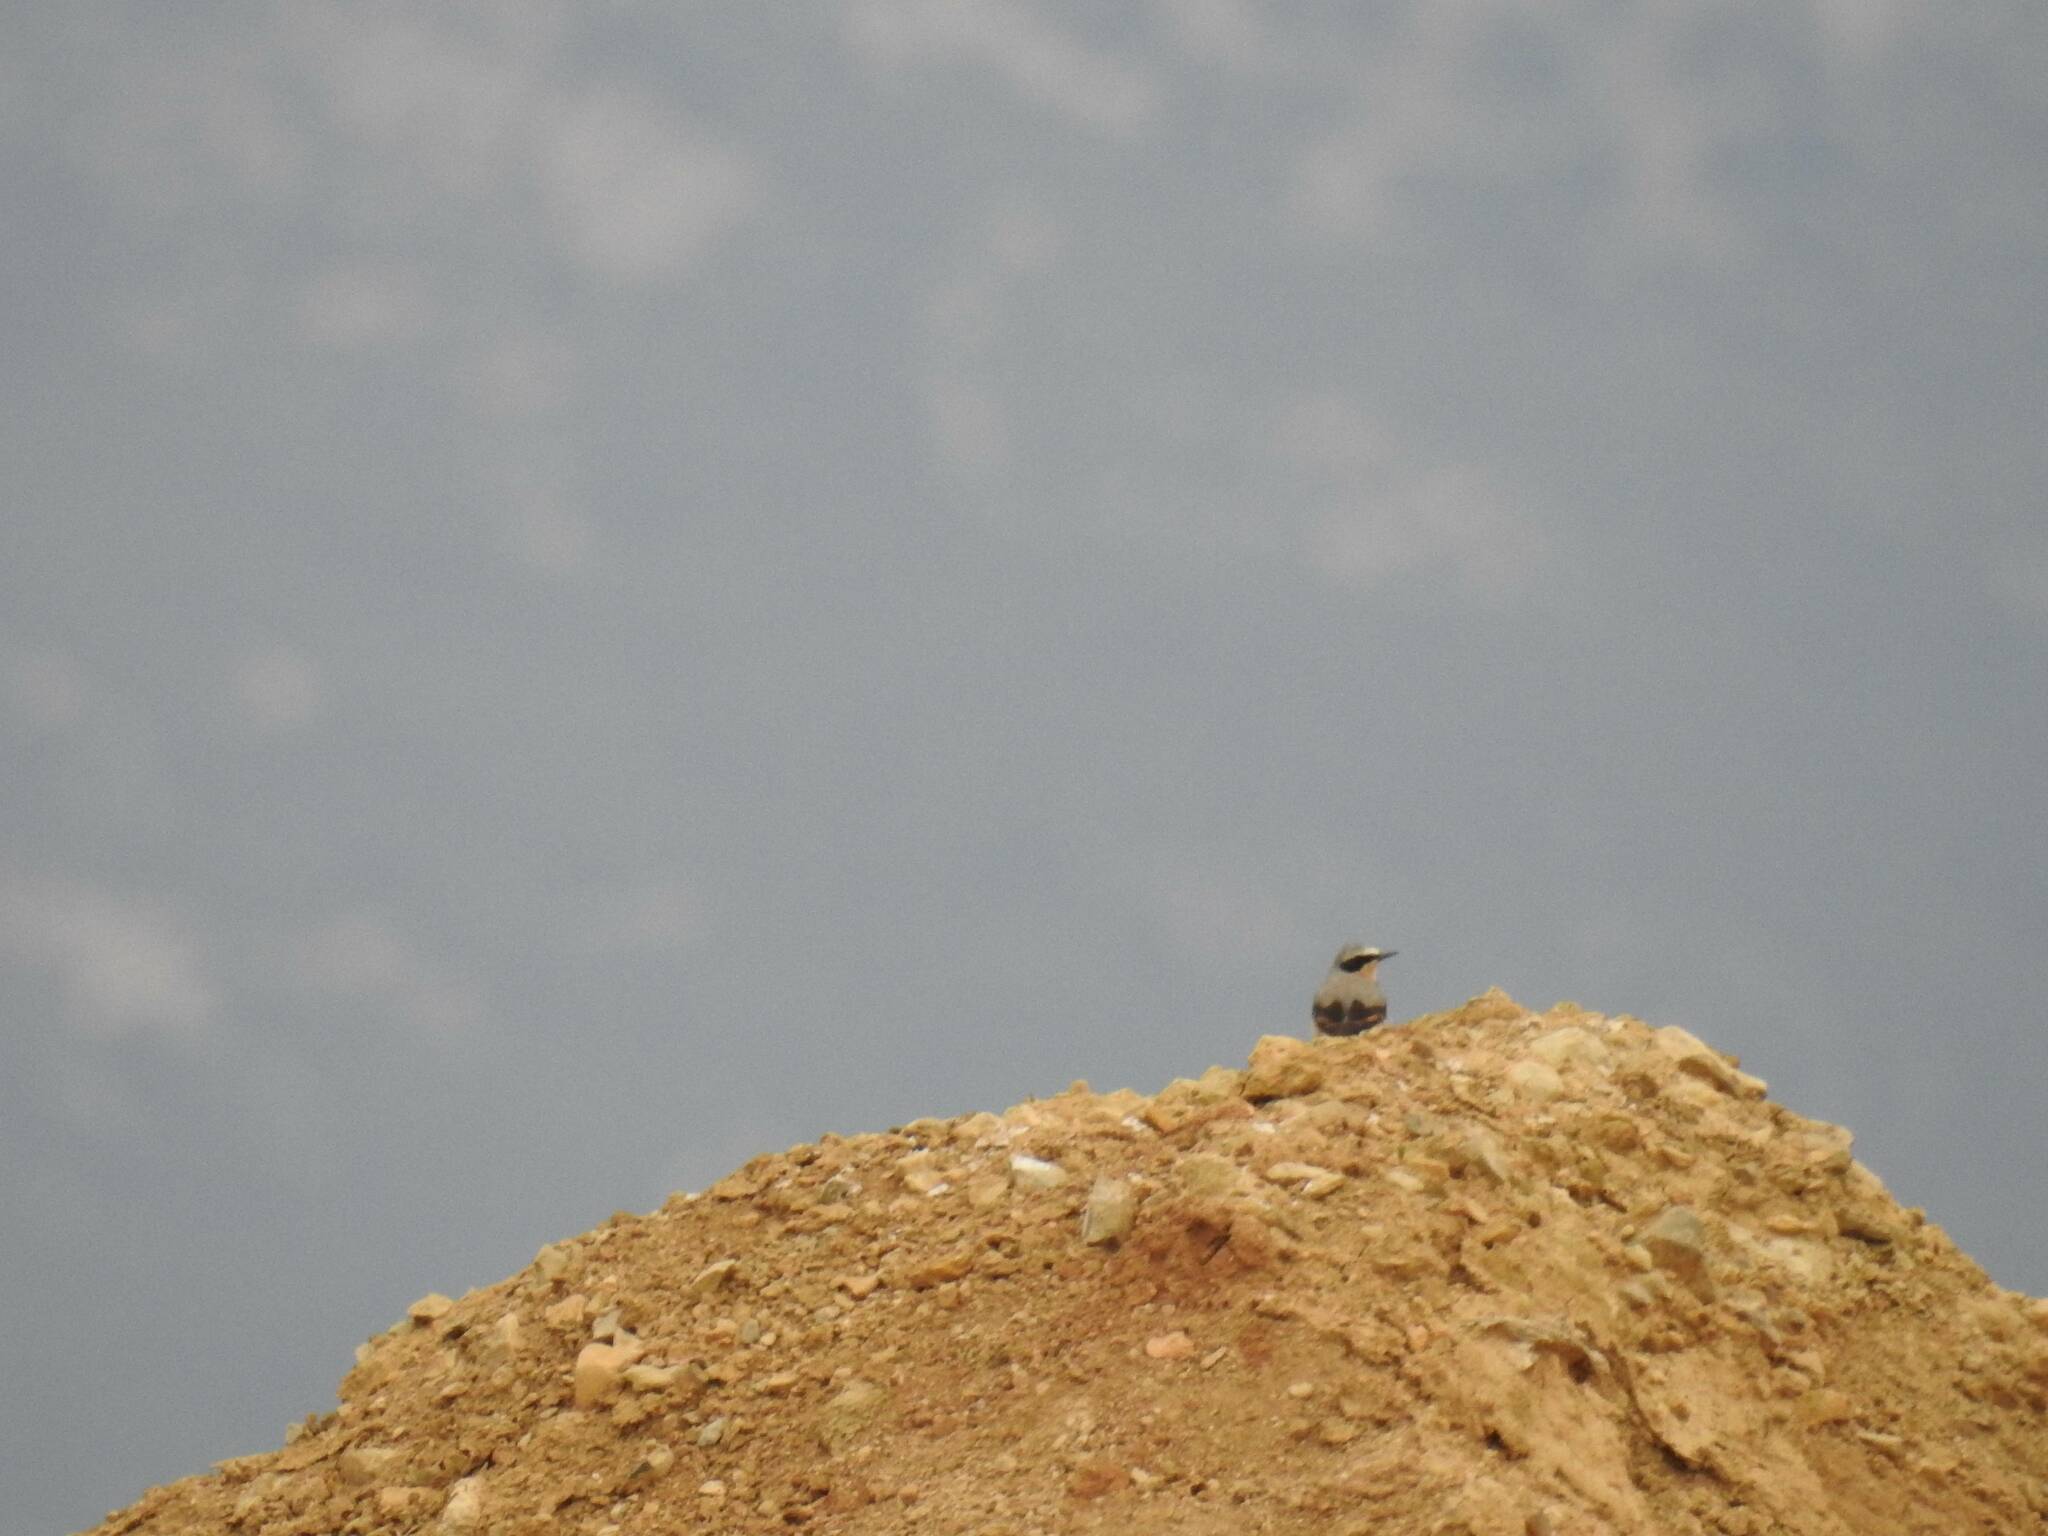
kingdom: Animalia
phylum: Chordata
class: Aves
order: Passeriformes
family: Muscicapidae
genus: Oenanthe
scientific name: Oenanthe oenanthe
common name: Northern wheatear
